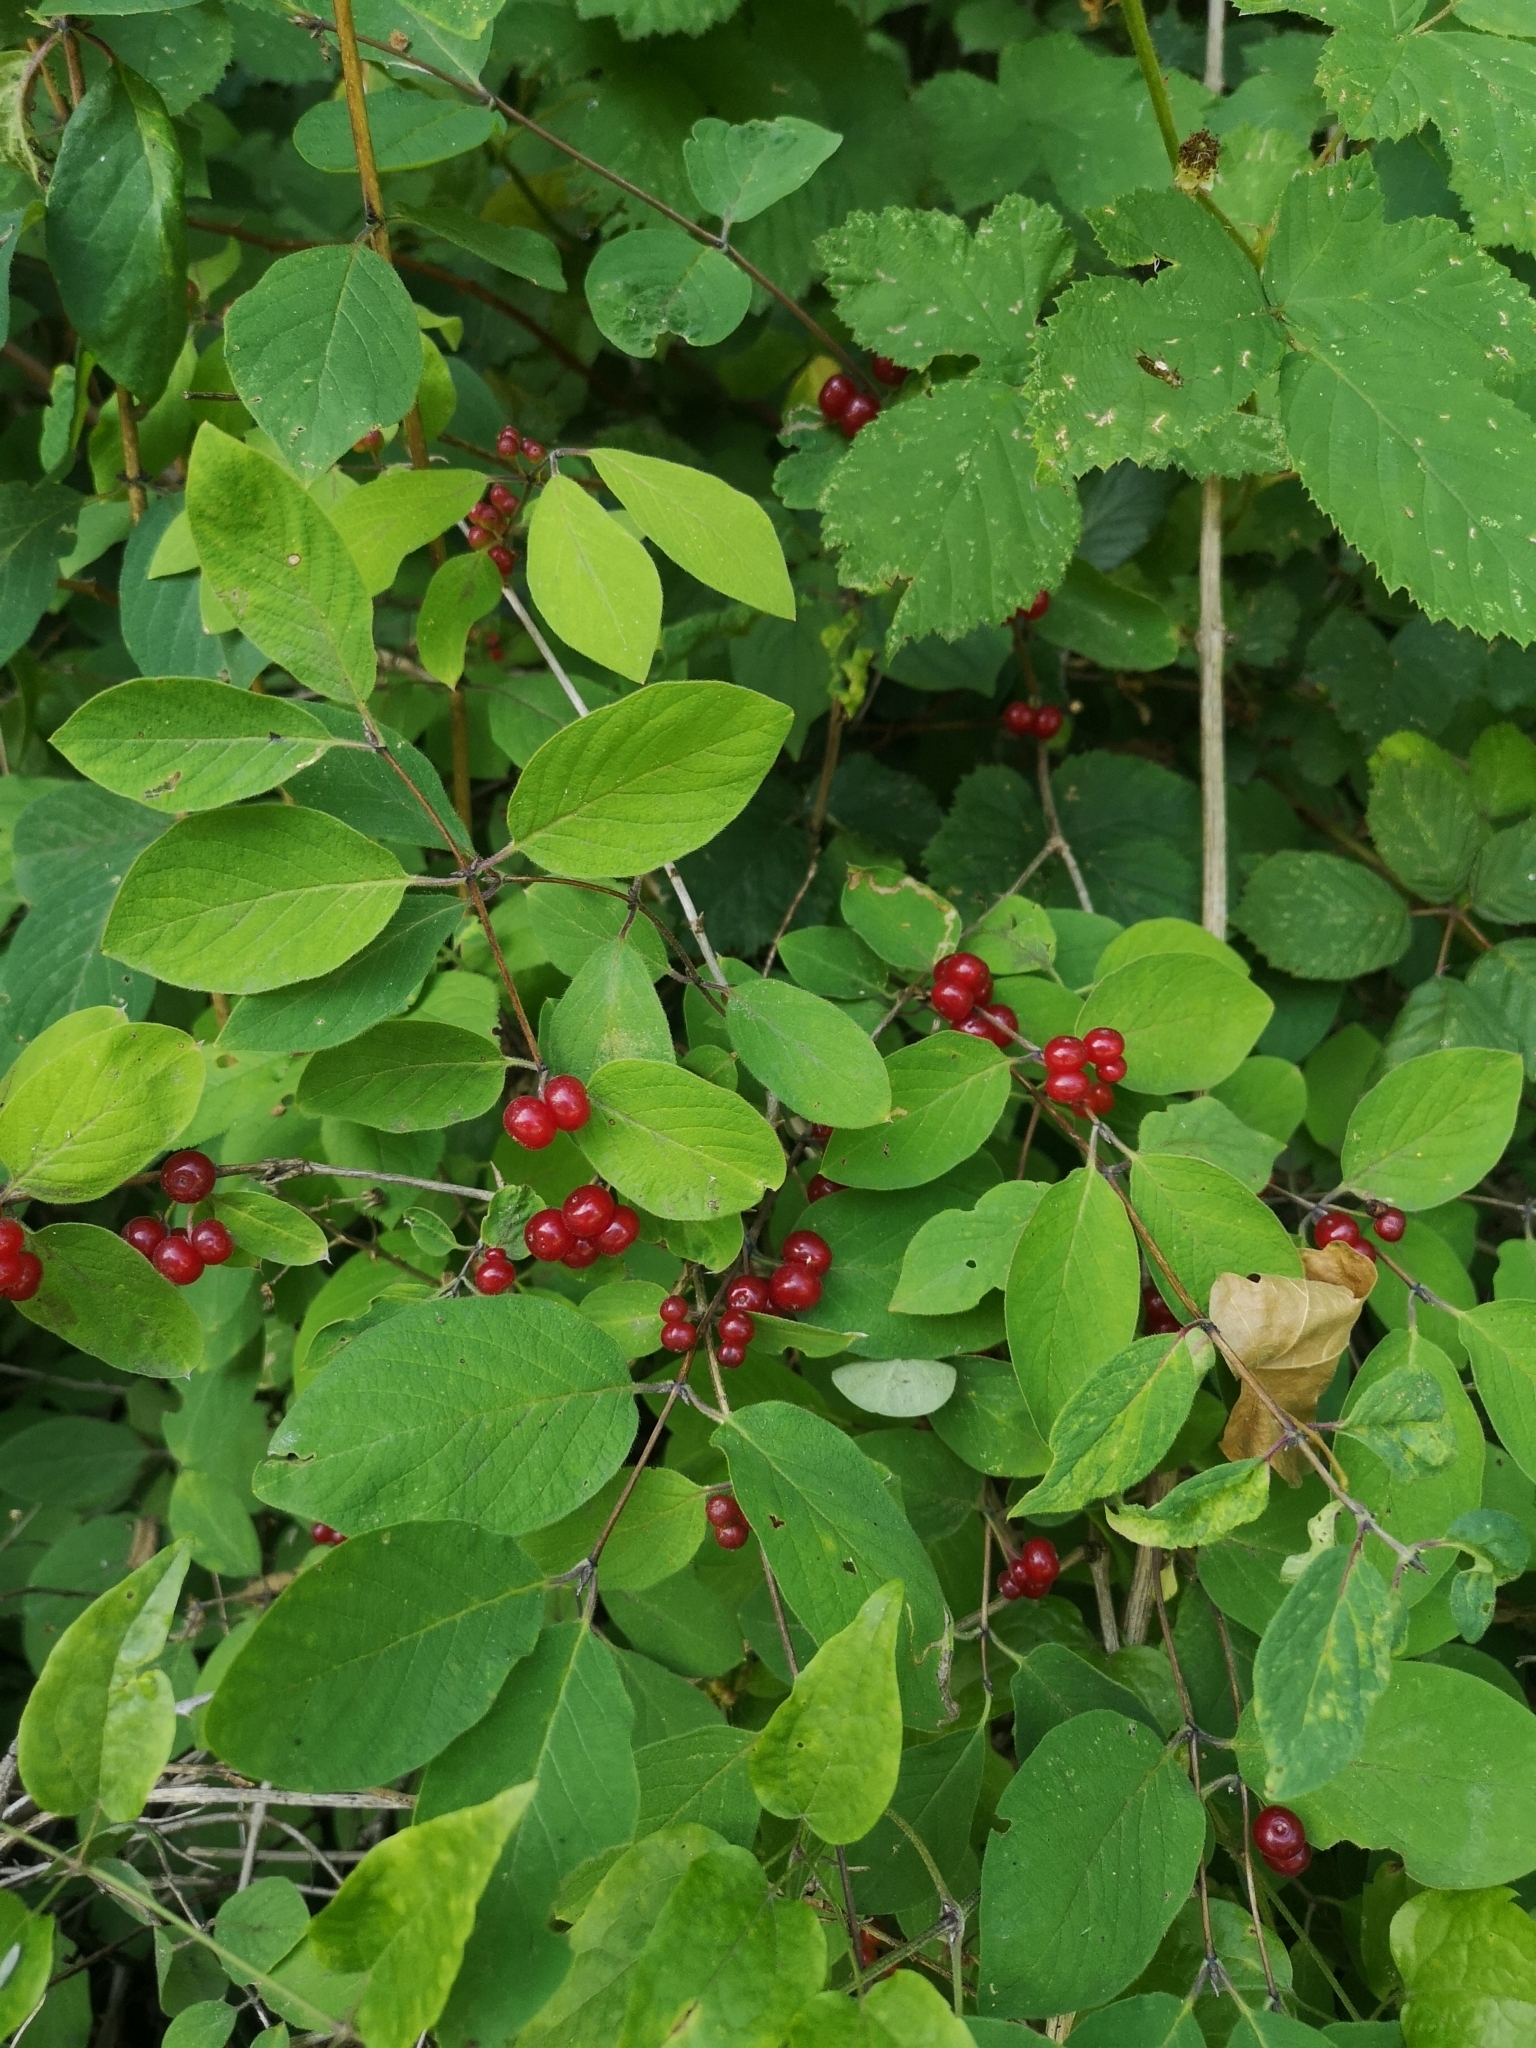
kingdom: Plantae
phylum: Tracheophyta
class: Magnoliopsida
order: Dipsacales
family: Caprifoliaceae
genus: Lonicera
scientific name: Lonicera xylosteum
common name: Fly honeysuckle
